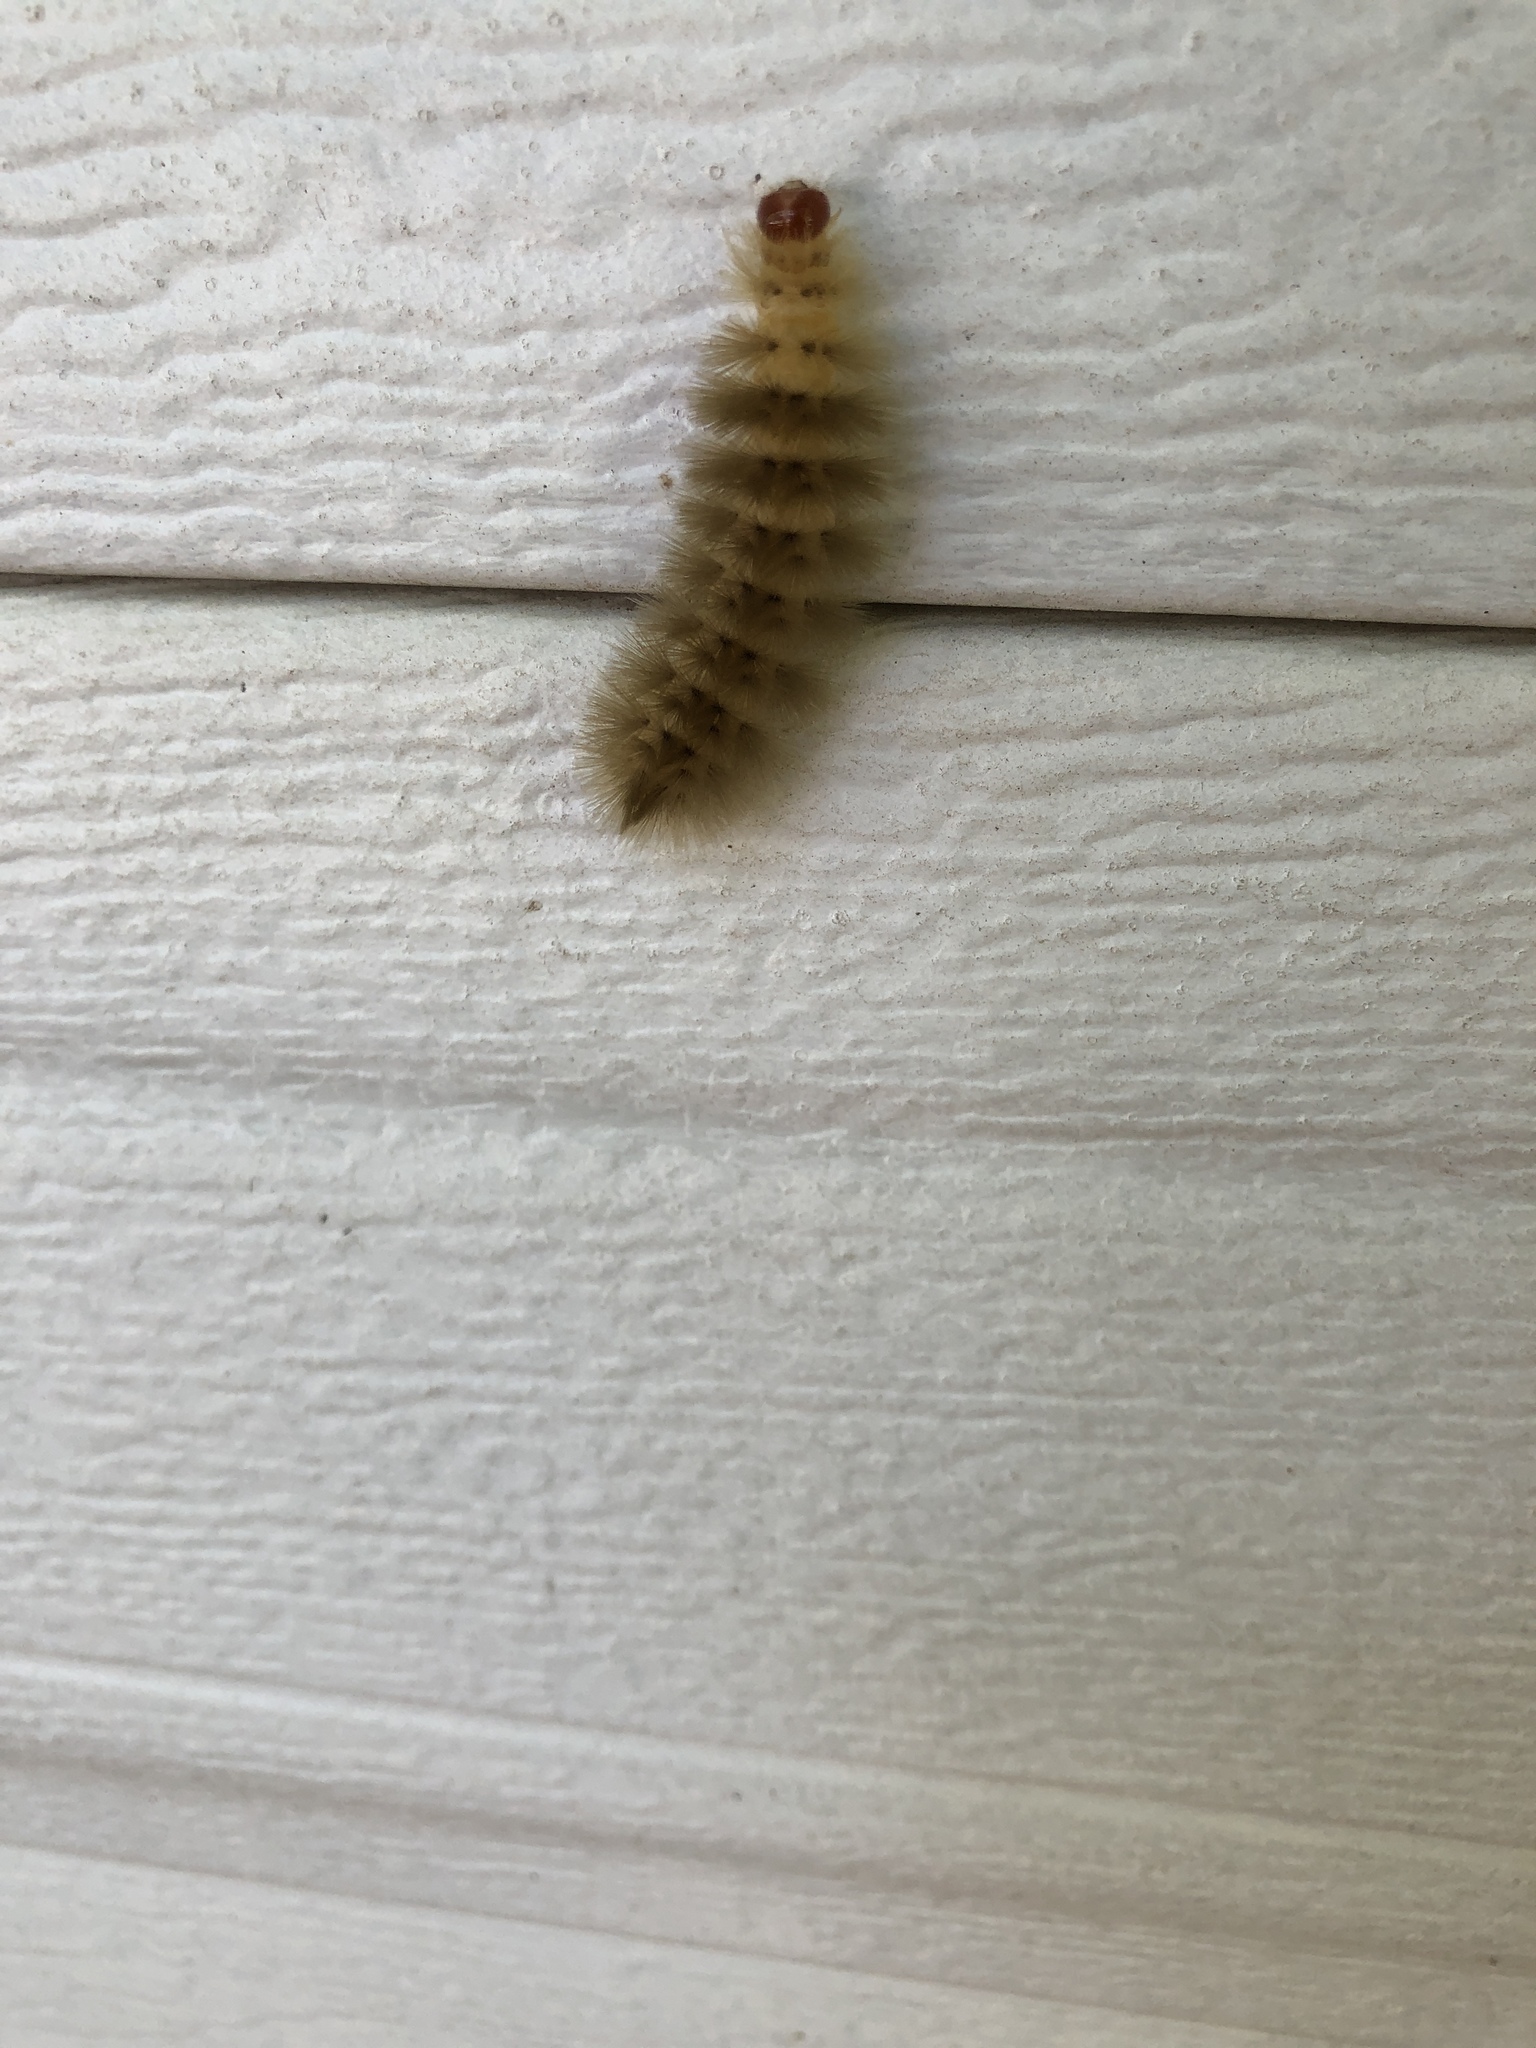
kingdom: Animalia
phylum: Arthropoda
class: Insecta
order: Lepidoptera
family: Erebidae
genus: Halysidota
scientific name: Halysidota harrisii
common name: Sycamore tussock moth
